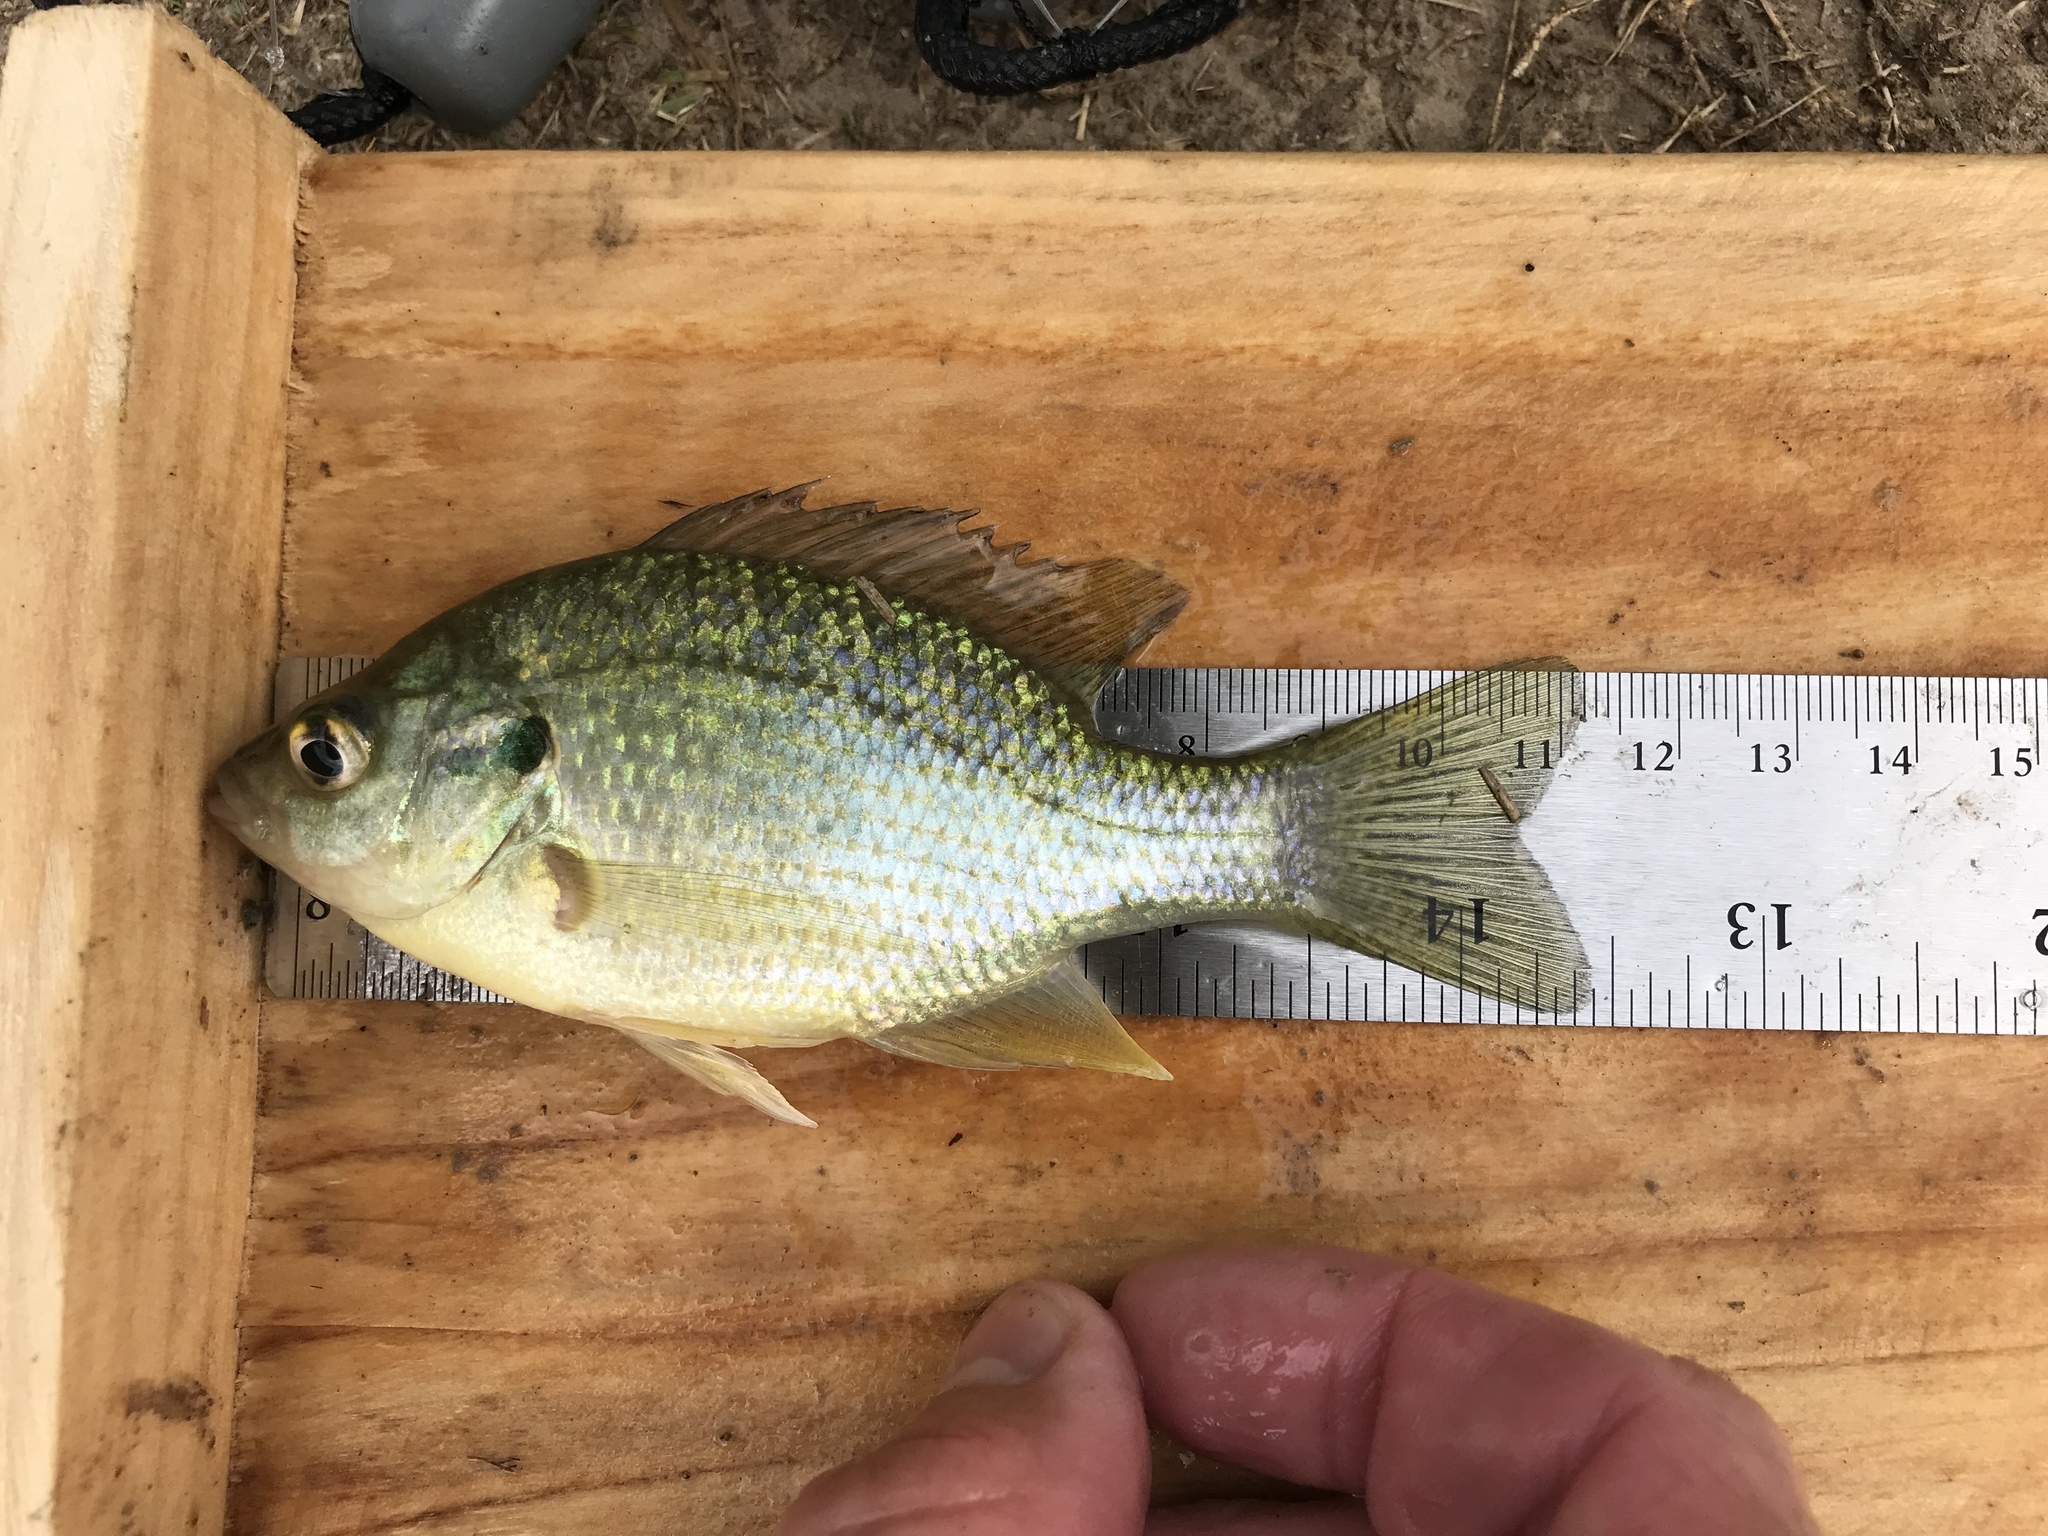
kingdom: Animalia
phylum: Chordata
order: Perciformes
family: Centrarchidae
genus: Lepomis
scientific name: Lepomis microlophus
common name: Redear sunfish
